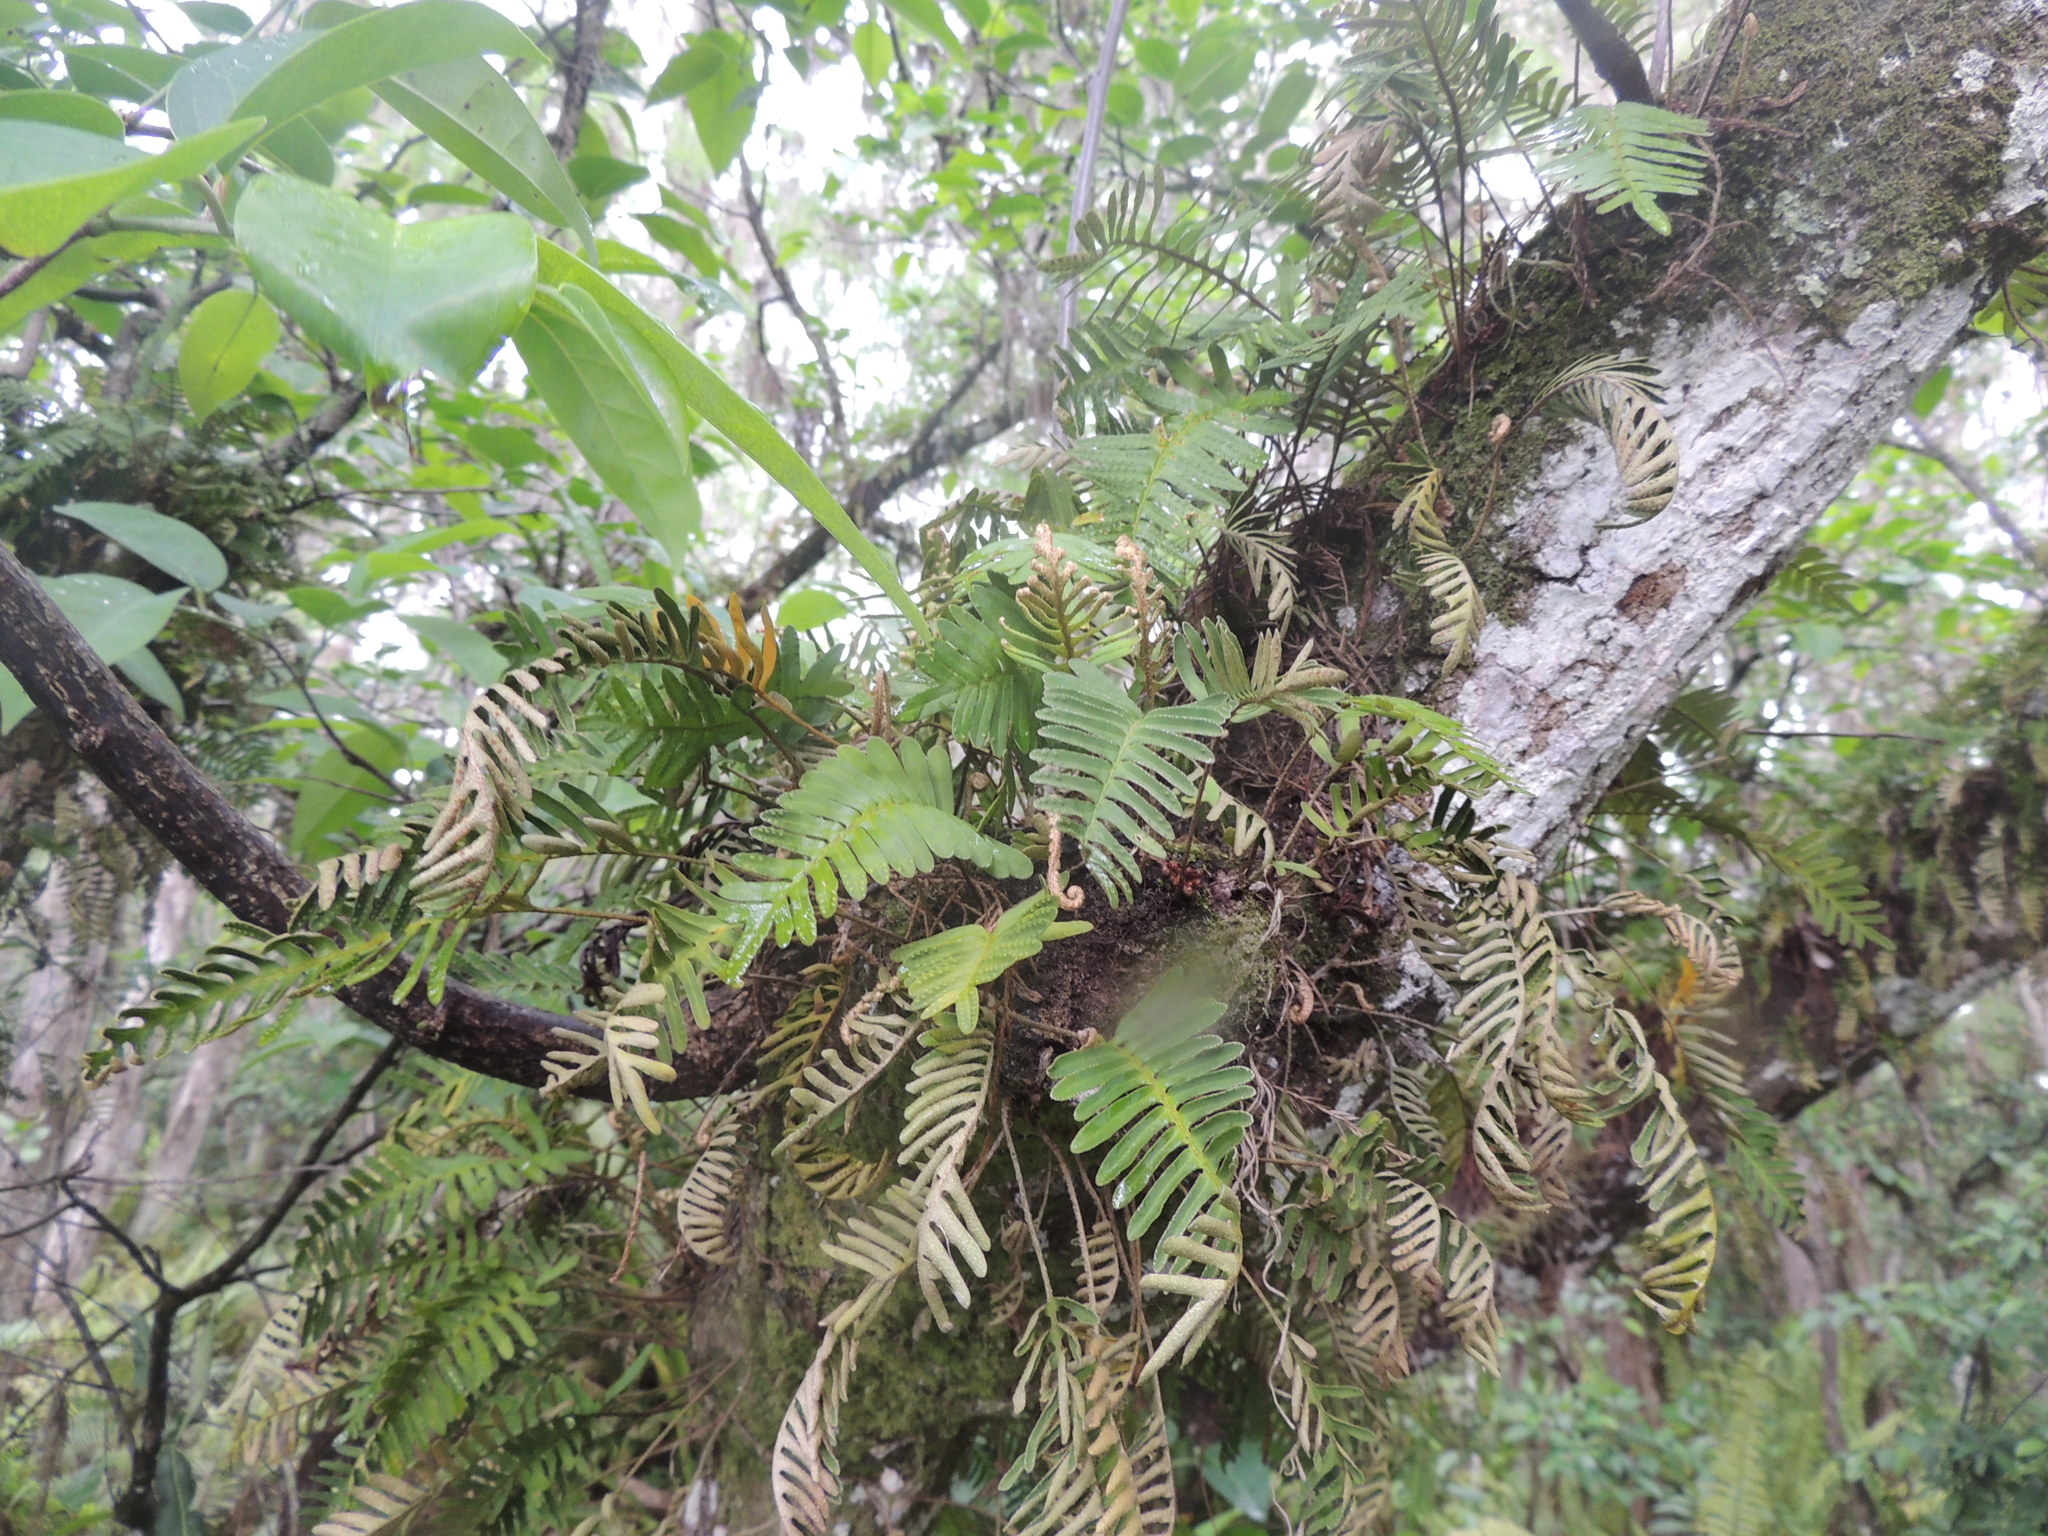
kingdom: Plantae
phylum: Tracheophyta
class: Polypodiopsida
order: Polypodiales
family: Polypodiaceae
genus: Pleopeltis
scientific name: Pleopeltis michauxiana
